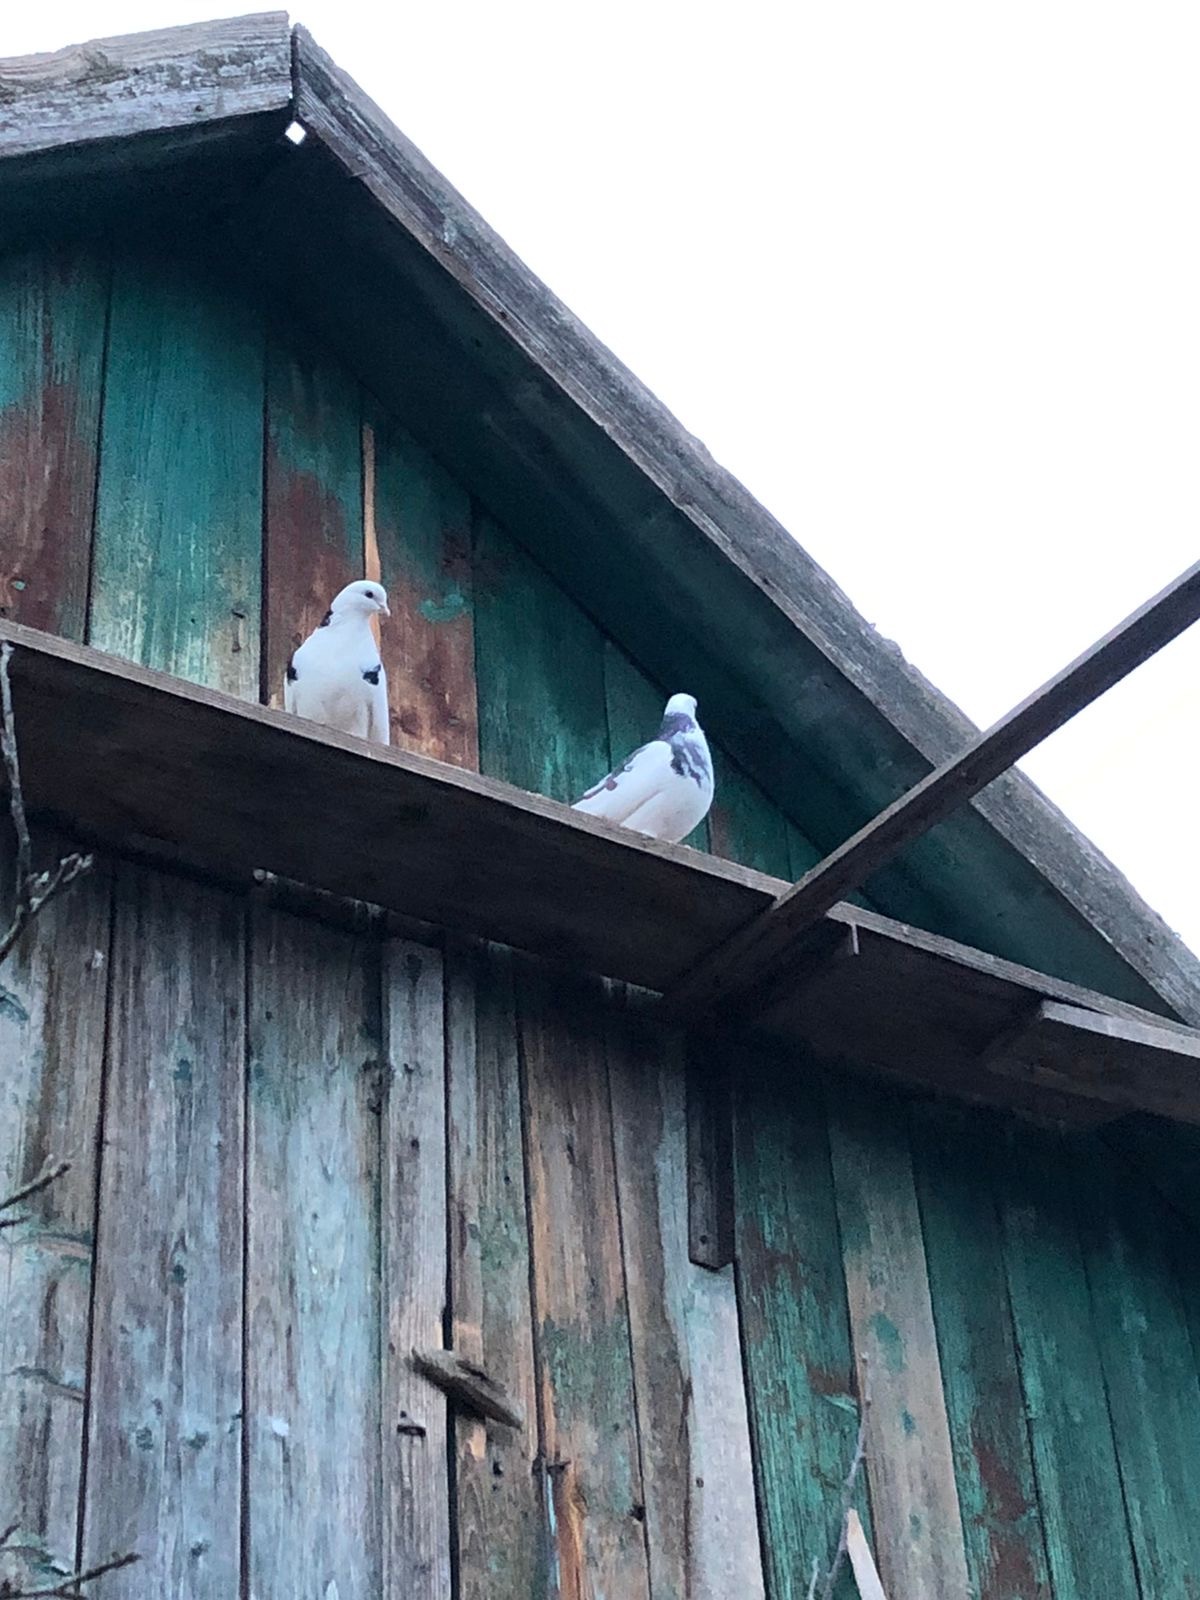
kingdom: Animalia
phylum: Chordata
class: Aves
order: Columbiformes
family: Columbidae
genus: Columba
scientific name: Columba livia
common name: Rock pigeon
